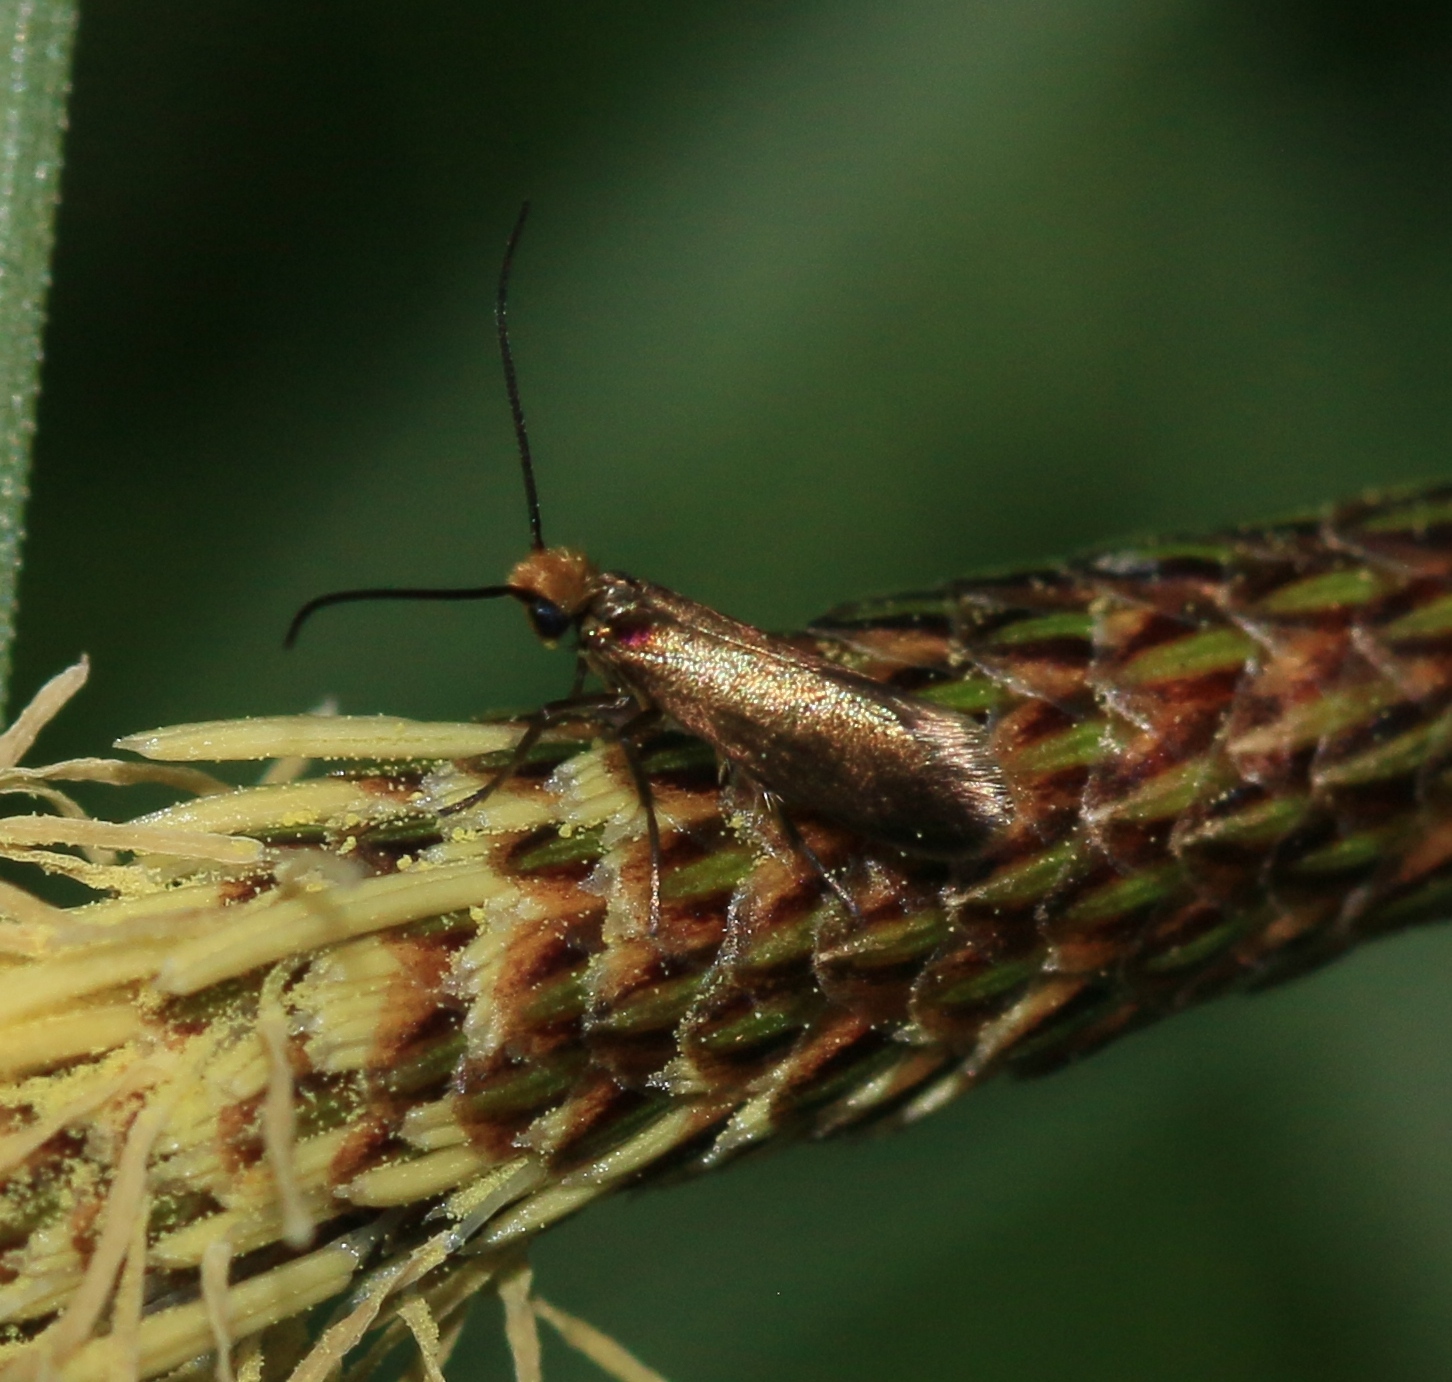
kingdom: Animalia
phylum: Arthropoda
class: Insecta
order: Lepidoptera
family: Micropterigidae
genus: Micropterix
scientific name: Micropterix calthella
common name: Plain gold
